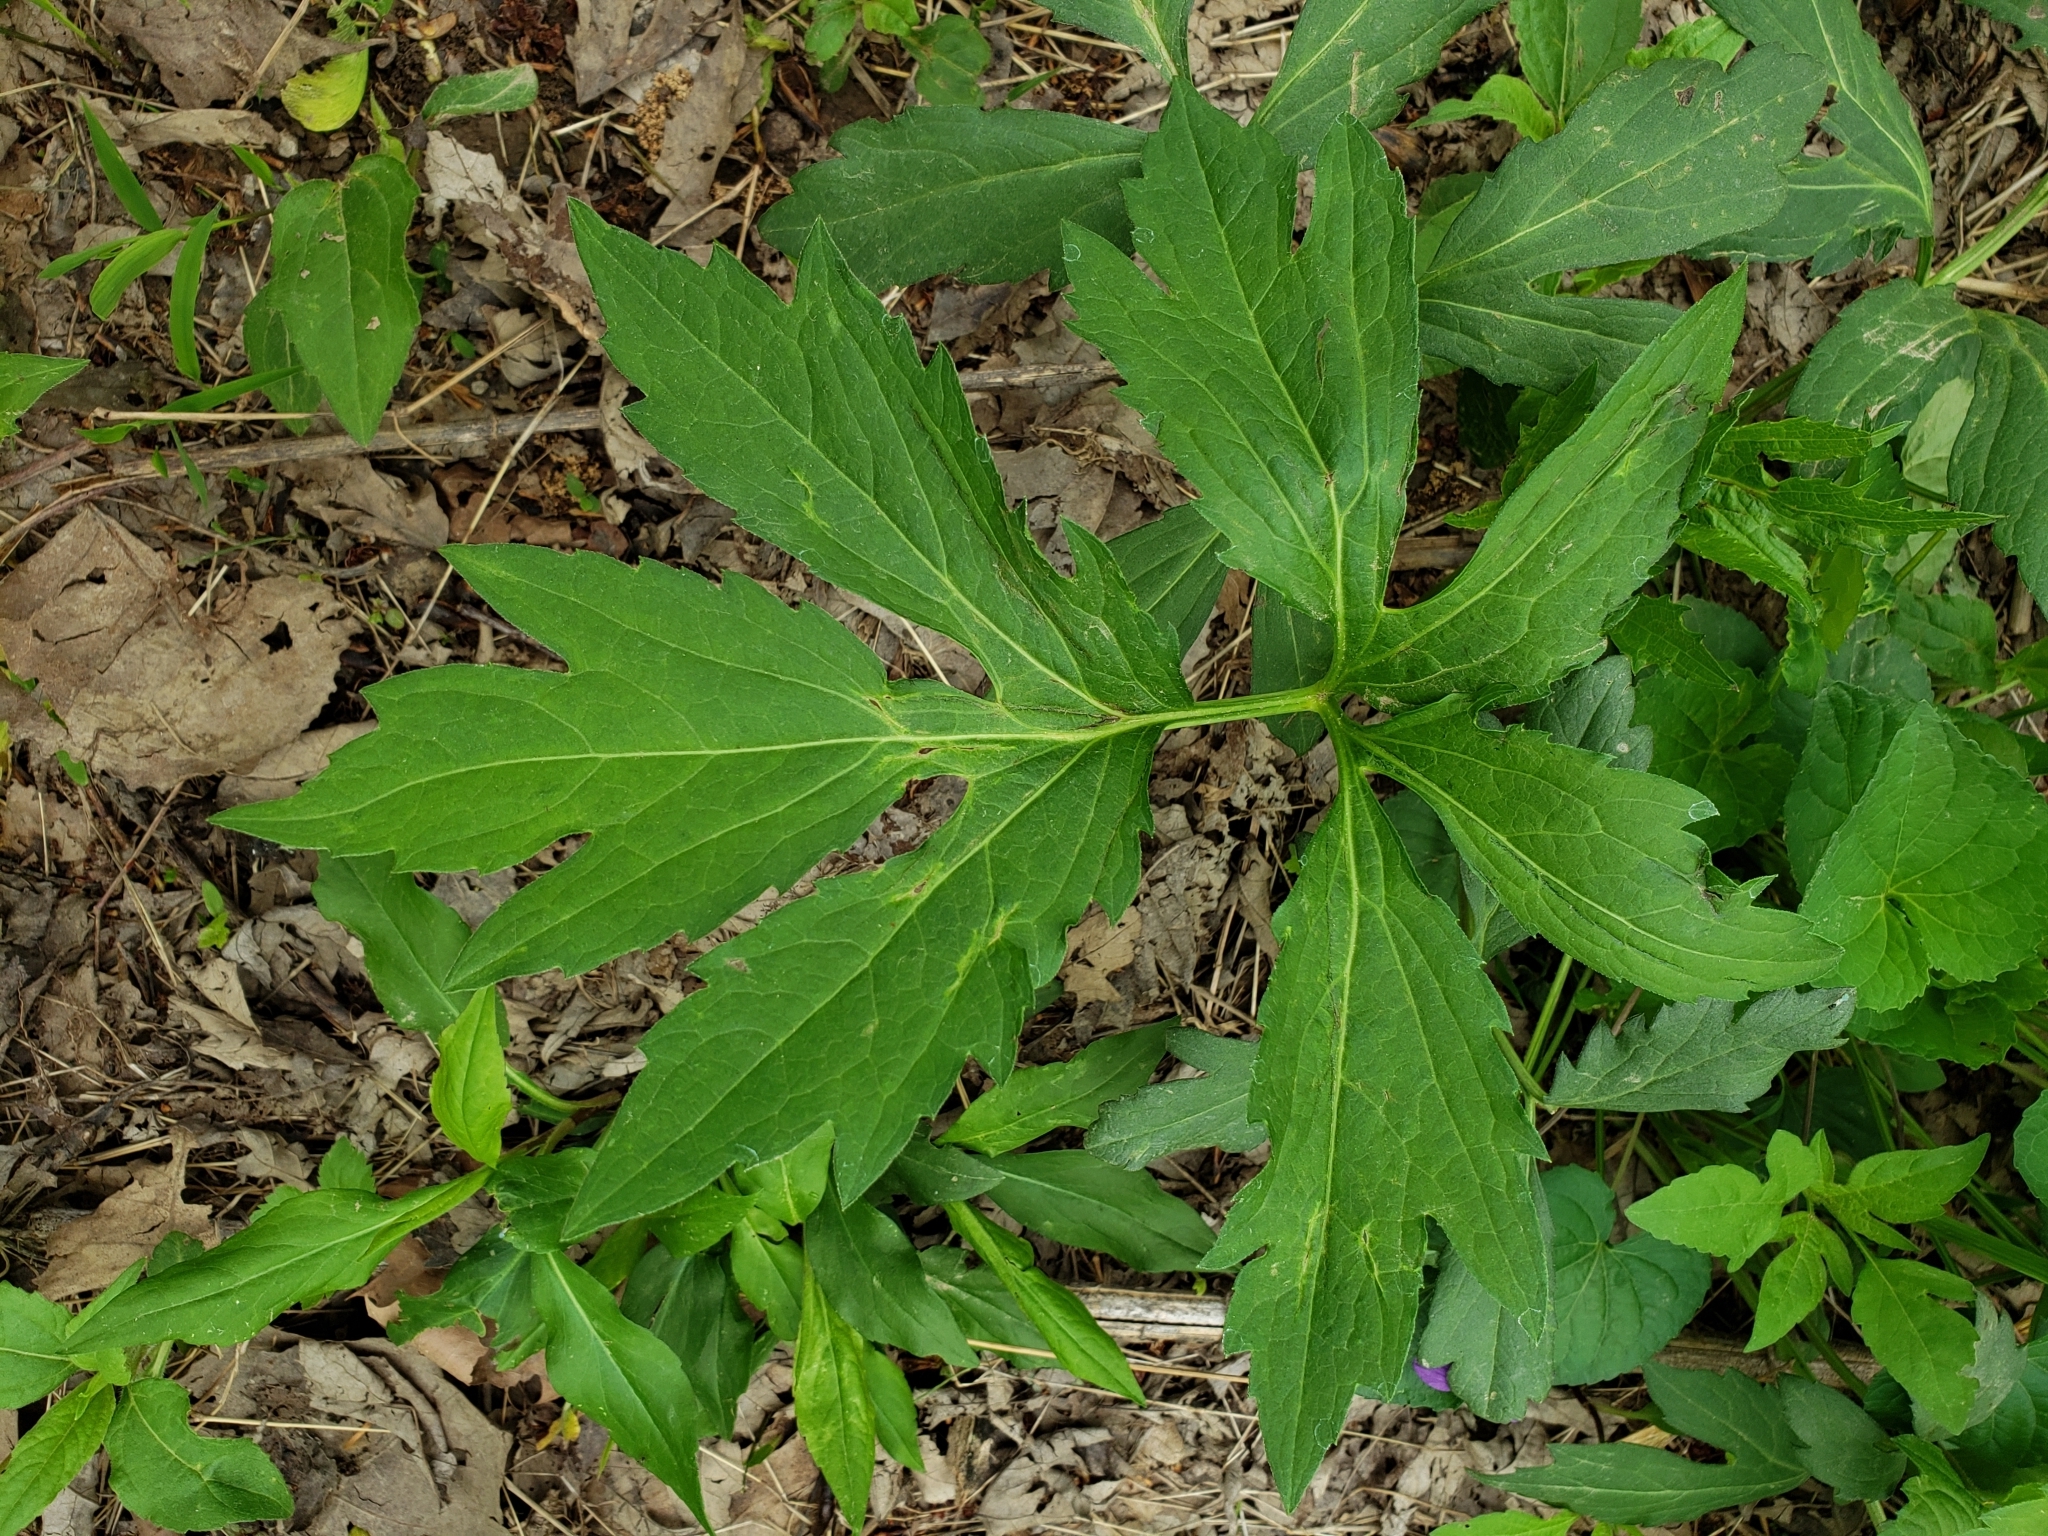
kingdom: Plantae
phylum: Tracheophyta
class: Magnoliopsida
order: Asterales
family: Asteraceae
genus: Rudbeckia
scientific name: Rudbeckia laciniata
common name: Coneflower
